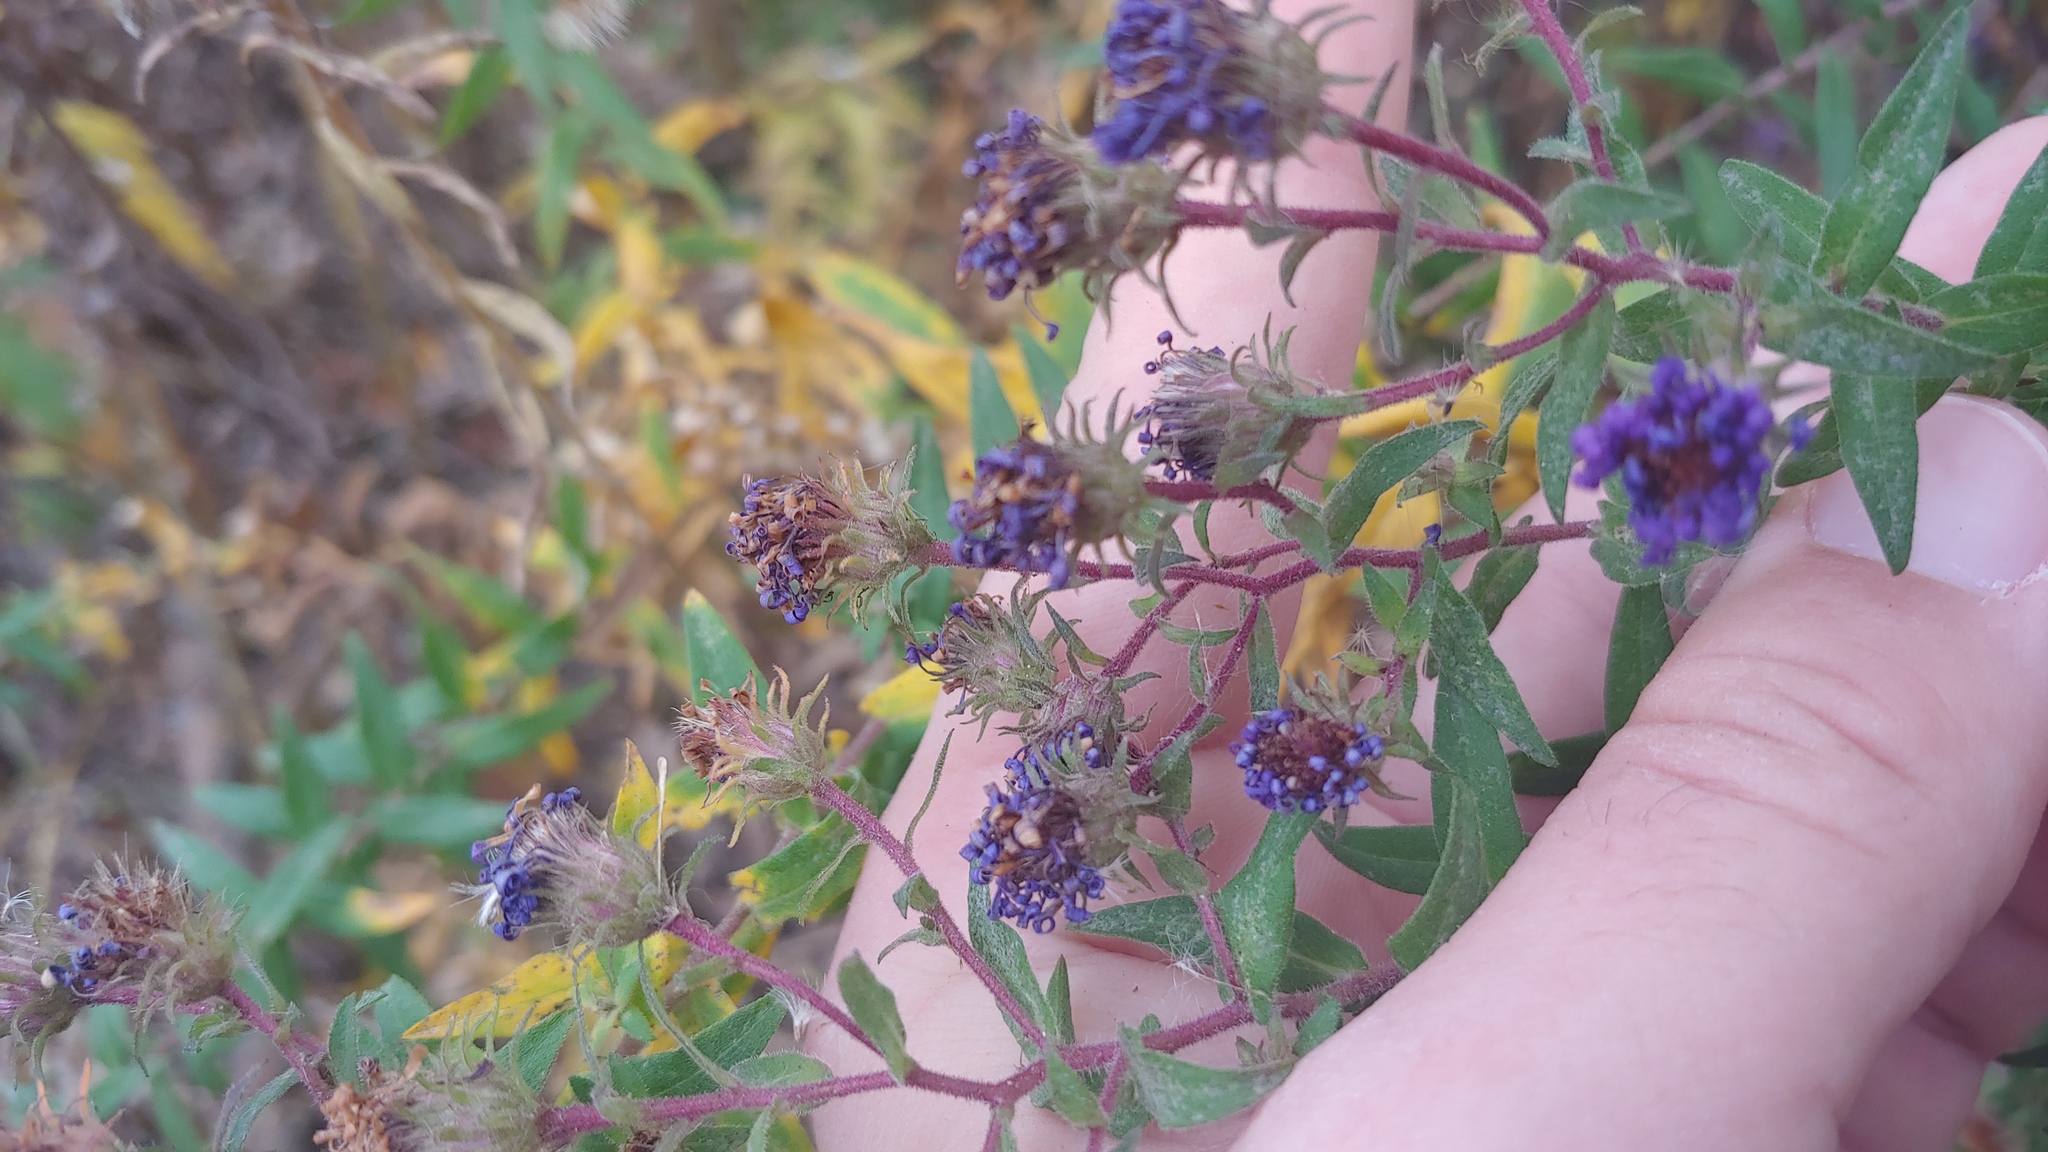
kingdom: Plantae
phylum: Tracheophyta
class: Magnoliopsida
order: Asterales
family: Asteraceae
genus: Symphyotrichum
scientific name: Symphyotrichum novae-angliae
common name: Michaelmas daisy
